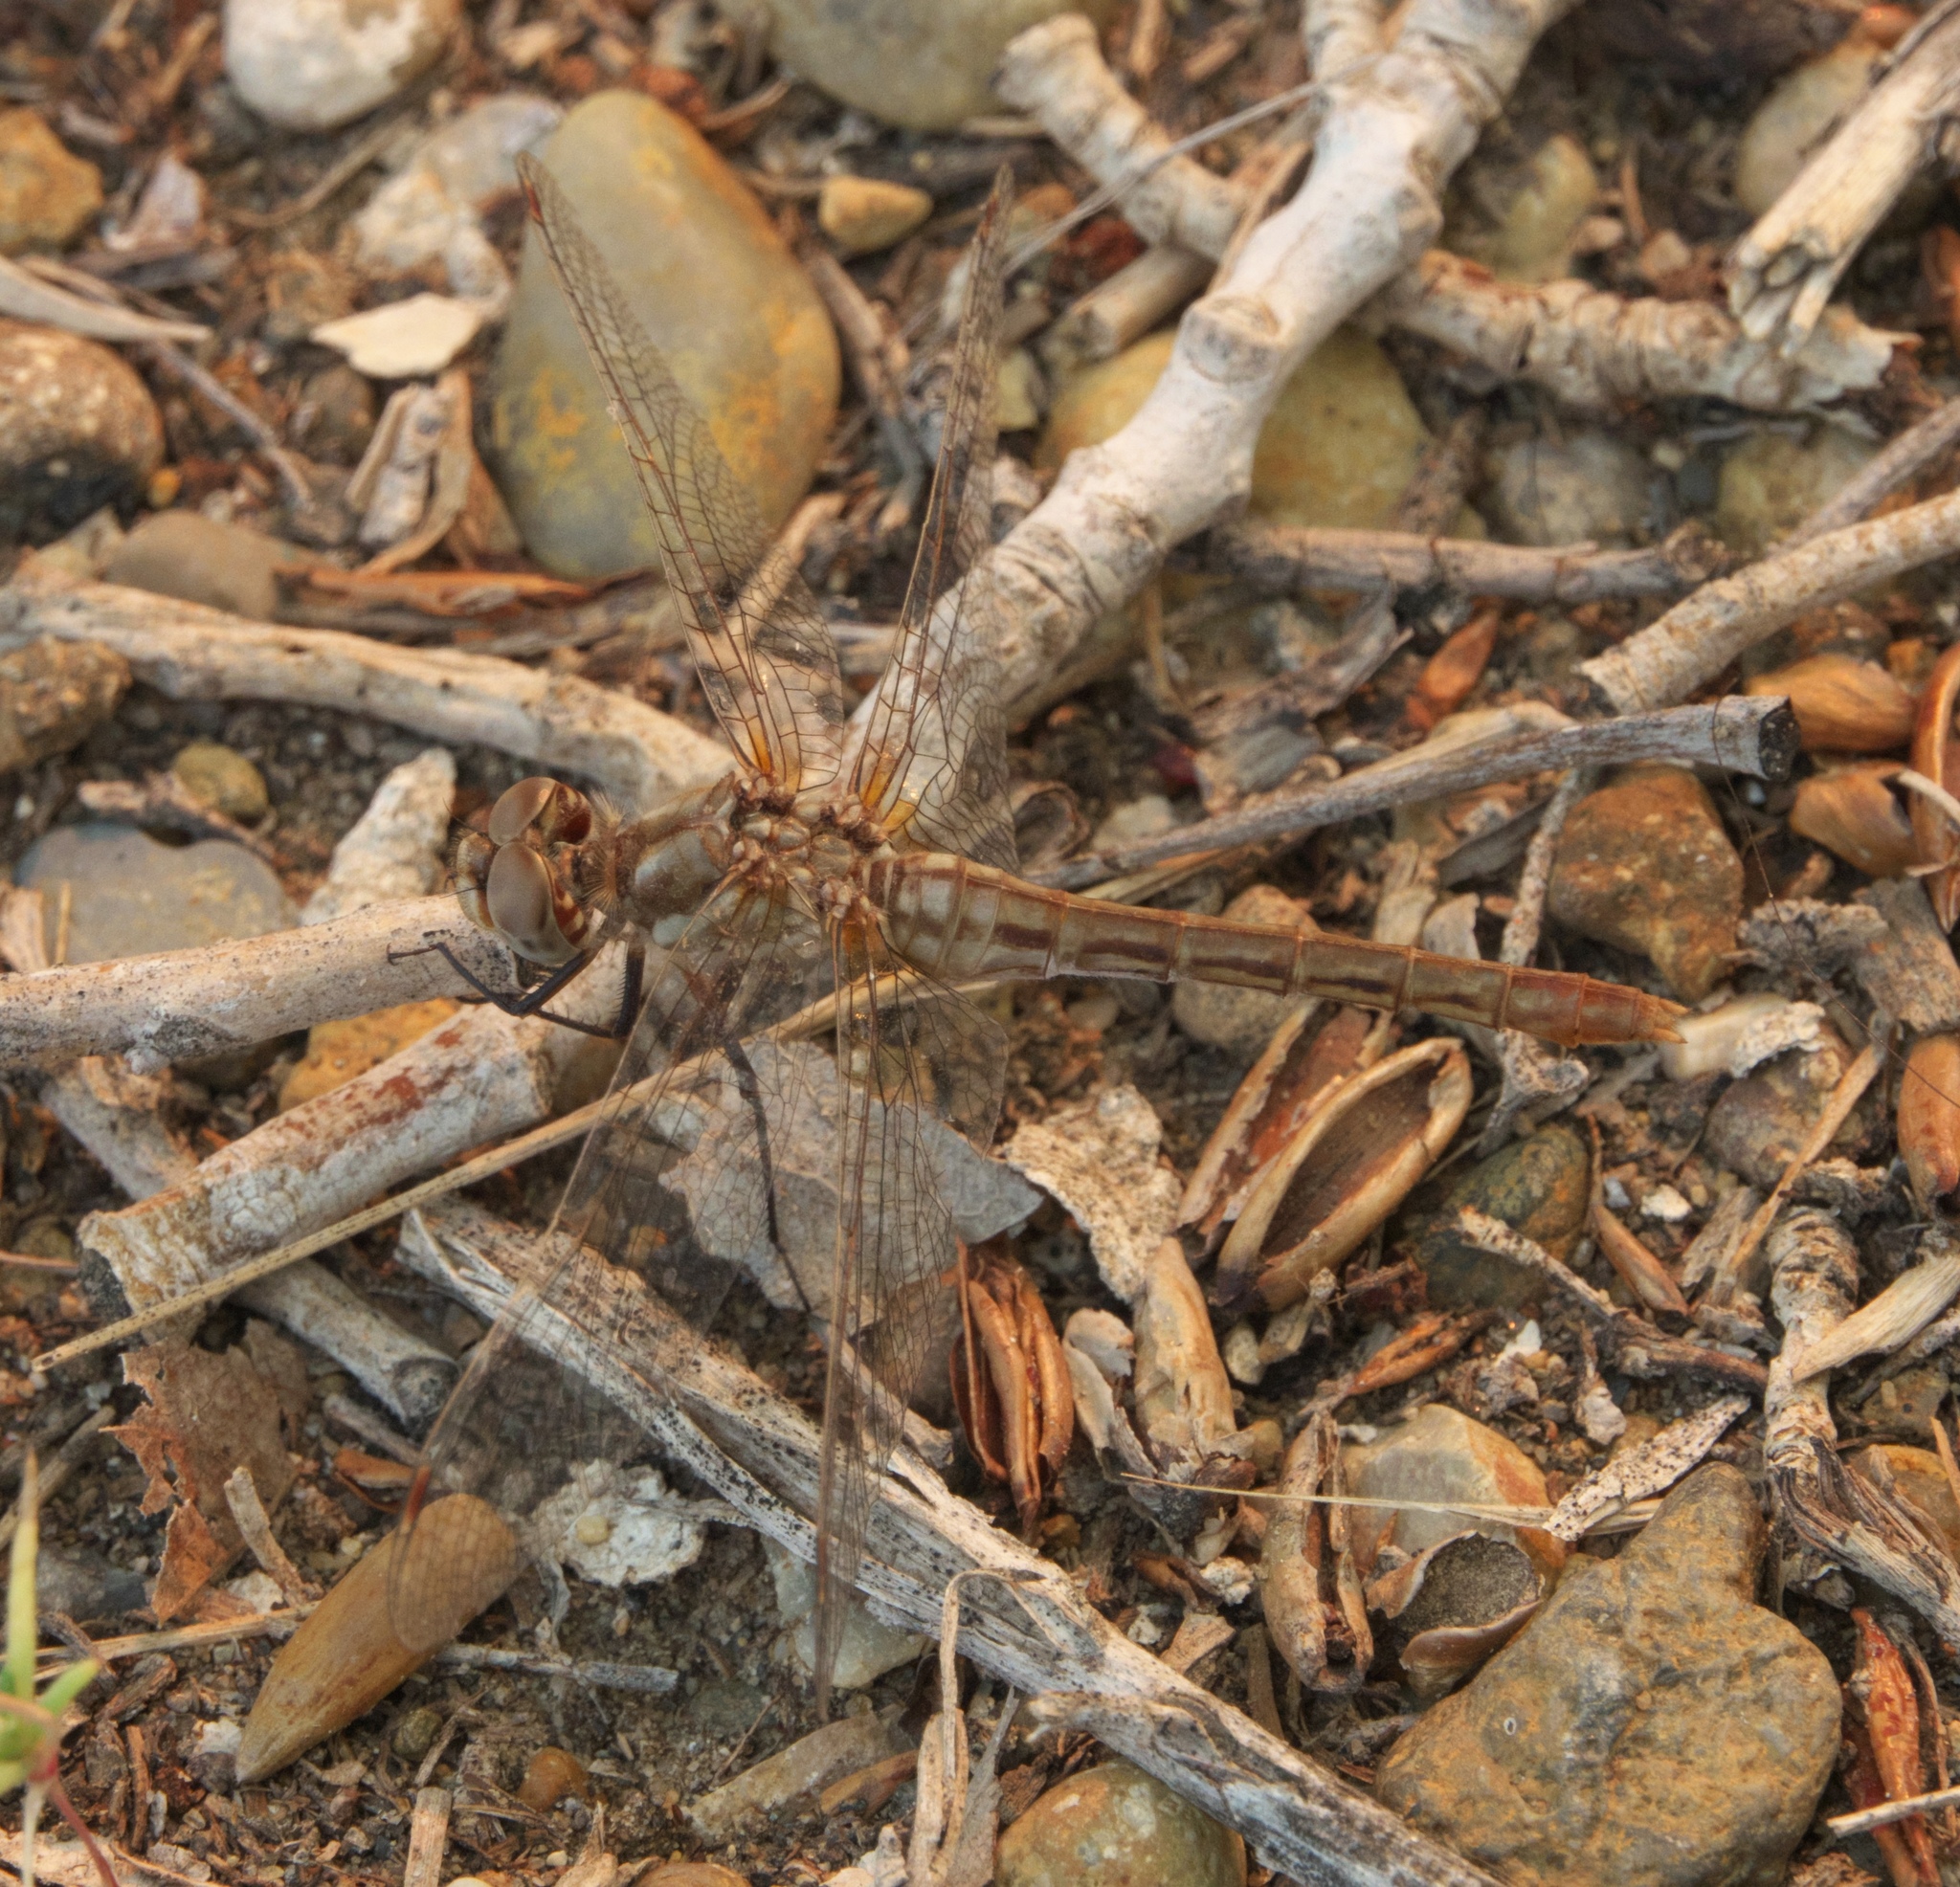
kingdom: Animalia
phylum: Arthropoda
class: Insecta
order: Odonata
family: Libellulidae
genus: Sympetrum
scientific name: Sympetrum pallipes
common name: Striped meadowhawk
